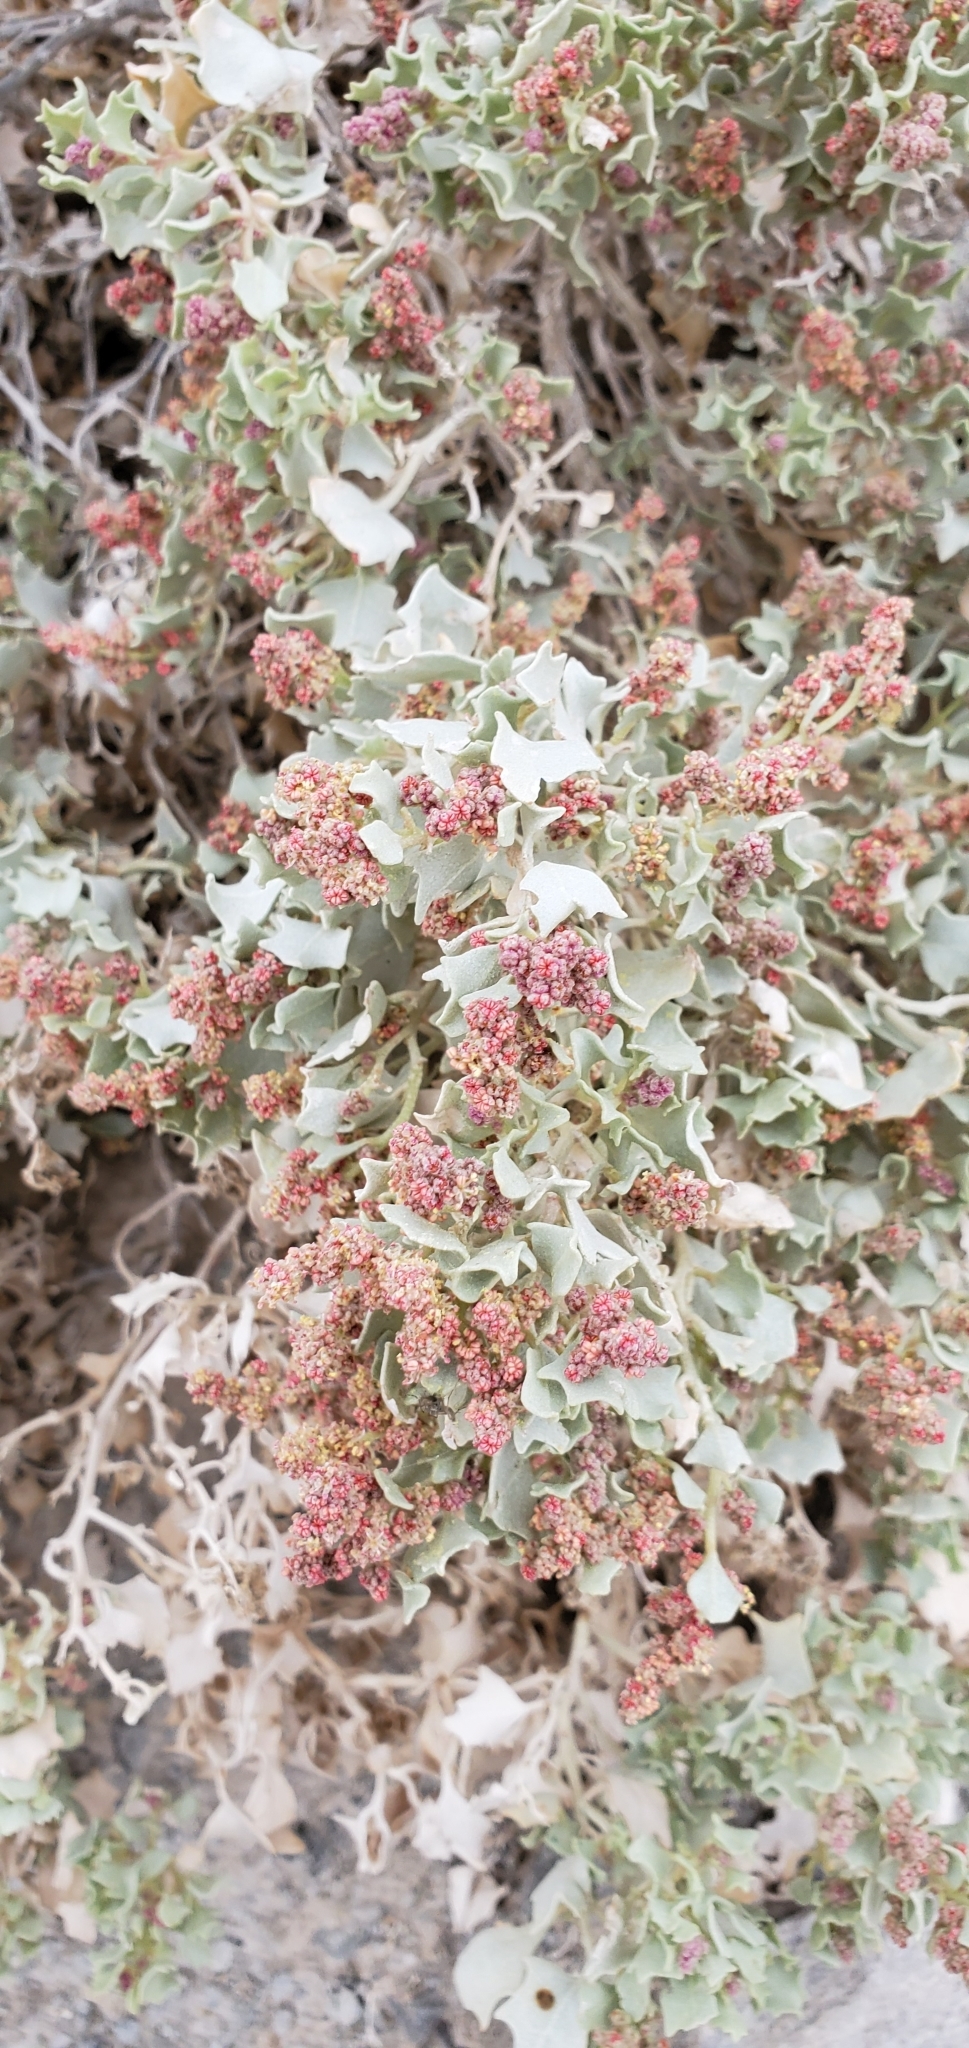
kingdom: Plantae
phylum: Tracheophyta
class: Magnoliopsida
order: Caryophyllales
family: Amaranthaceae
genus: Atriplex
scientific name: Atriplex hymenelytra
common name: Desert-holly
